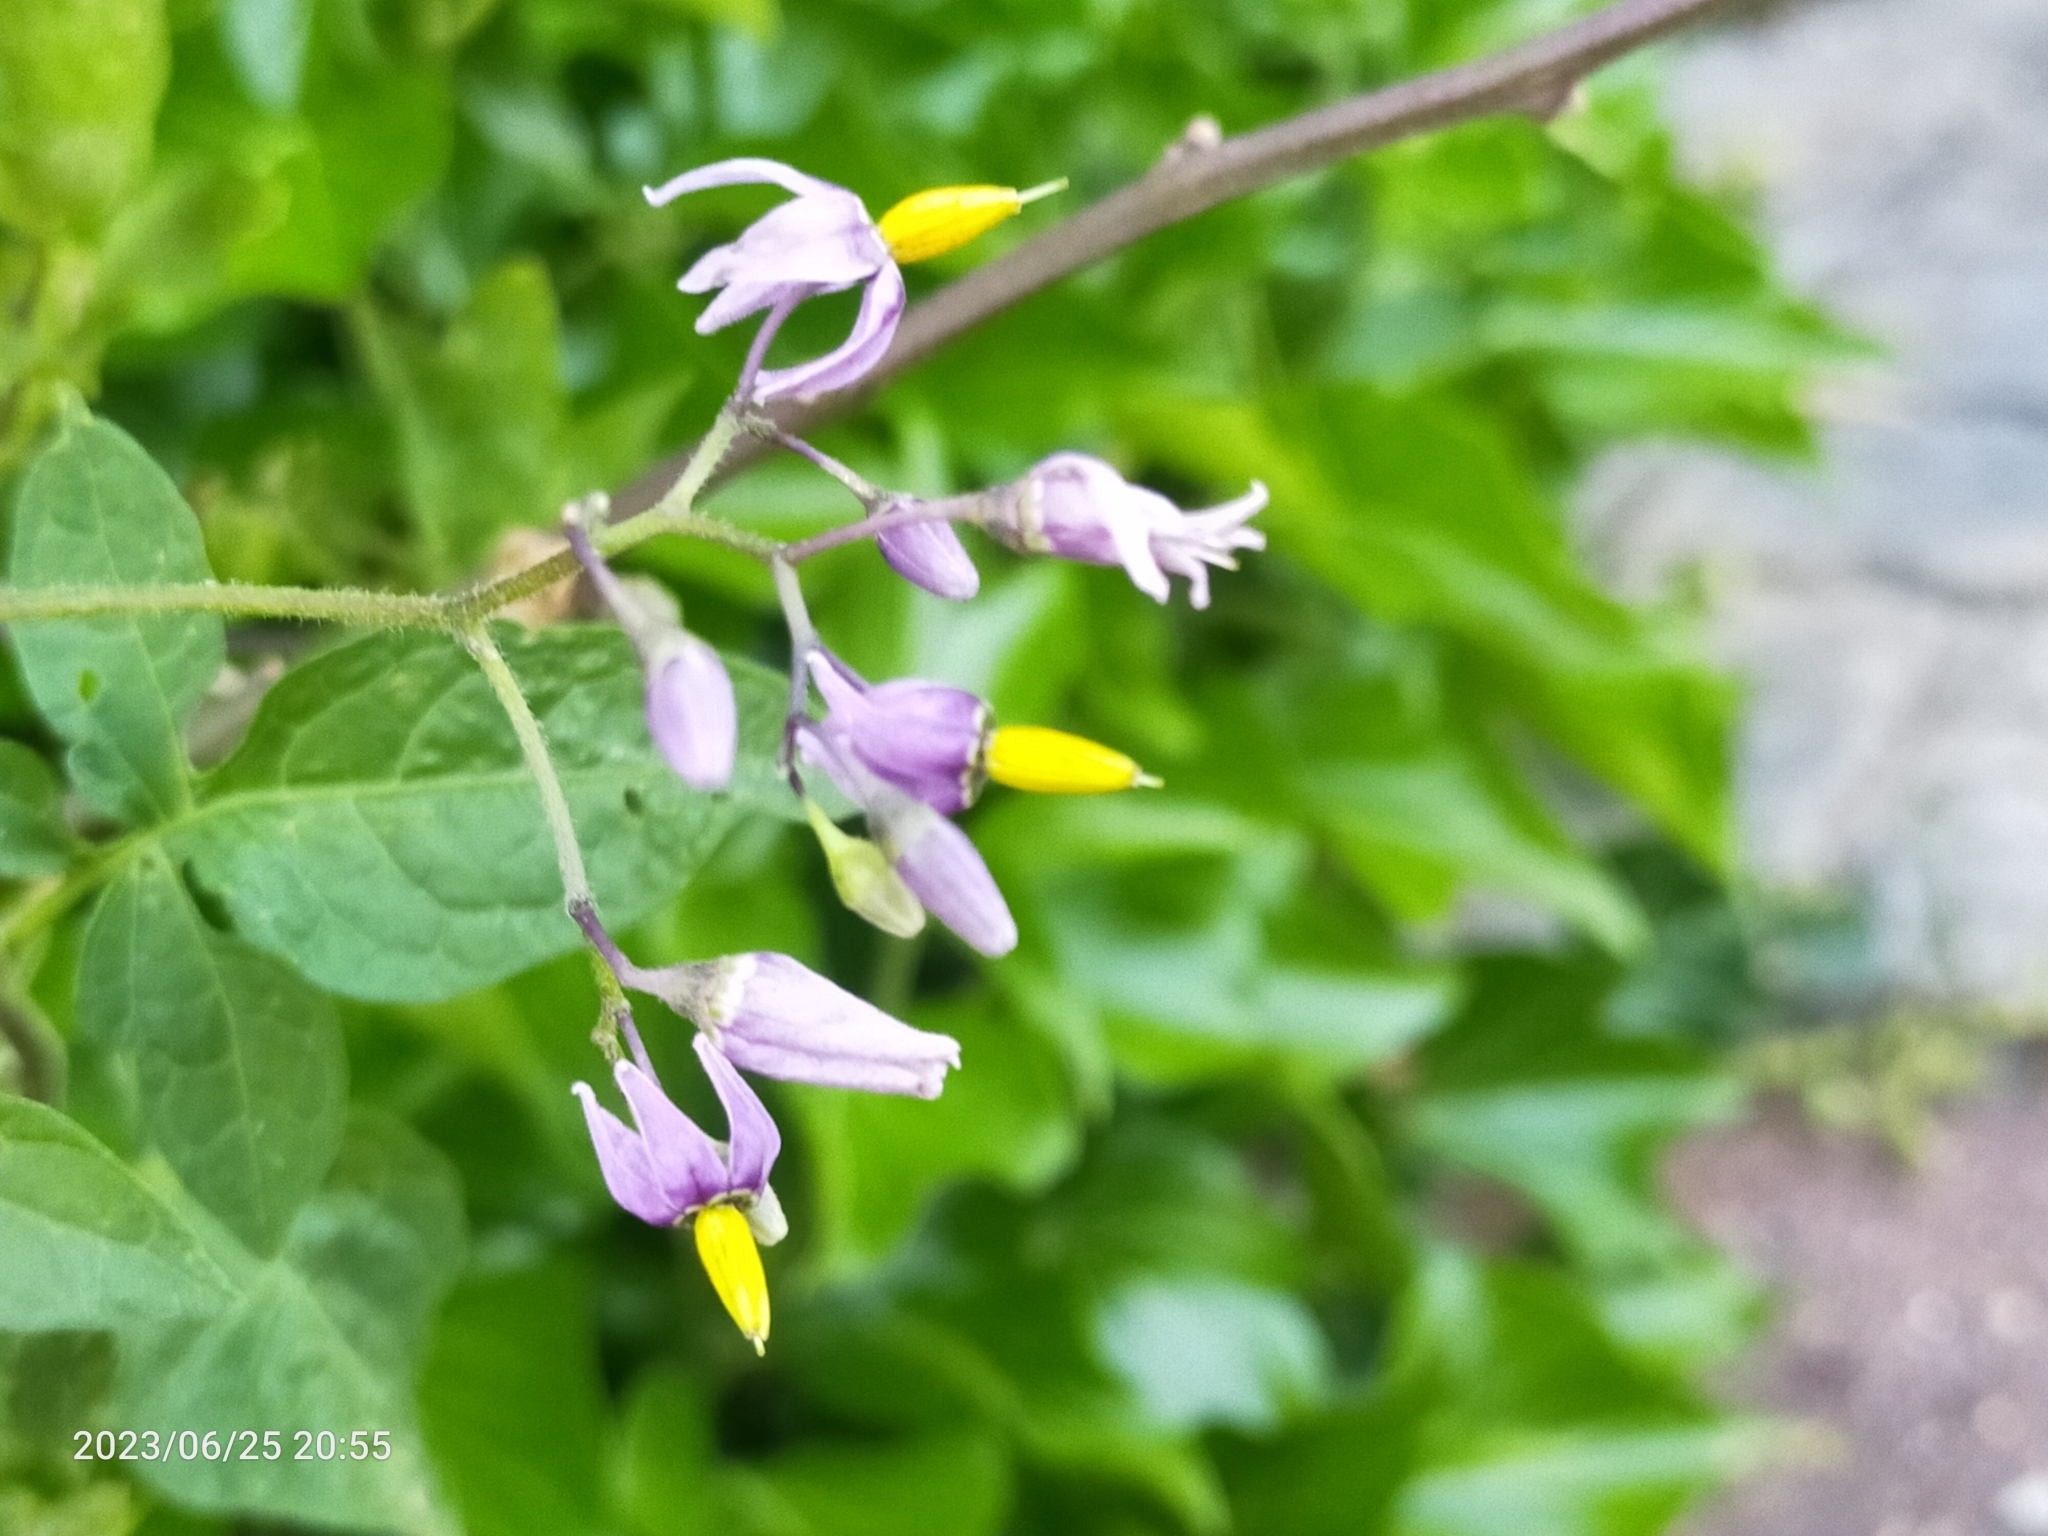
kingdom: Plantae
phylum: Tracheophyta
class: Magnoliopsida
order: Solanales
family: Solanaceae
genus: Solanum
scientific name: Solanum dulcamara
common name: Climbing nightshade
